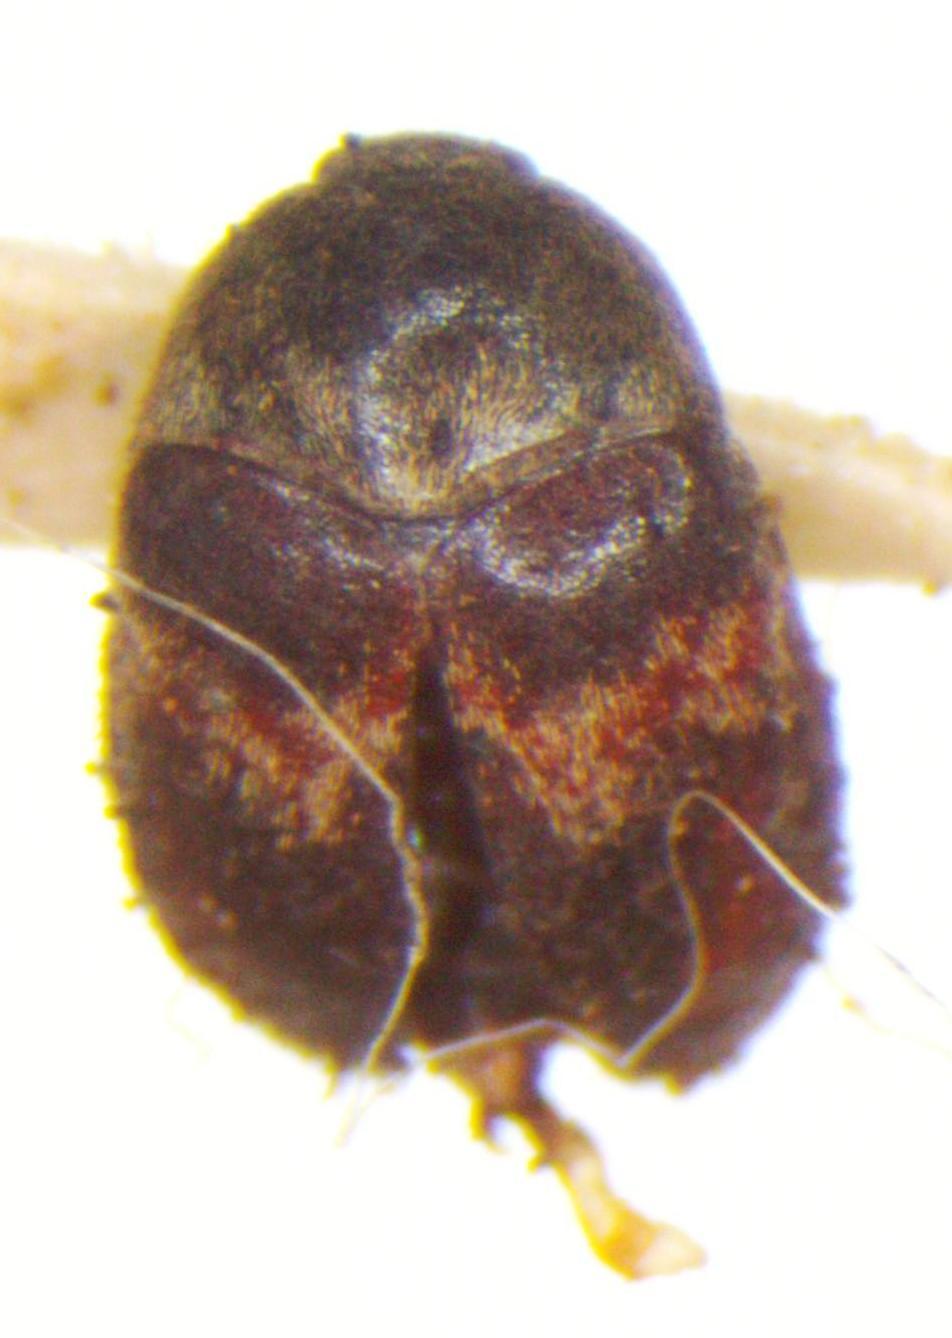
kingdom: Animalia
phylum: Arthropoda
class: Insecta
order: Coleoptera
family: Dermestidae
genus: Attagenus
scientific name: Attagenus fasciatus
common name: Wardrobe beetle
